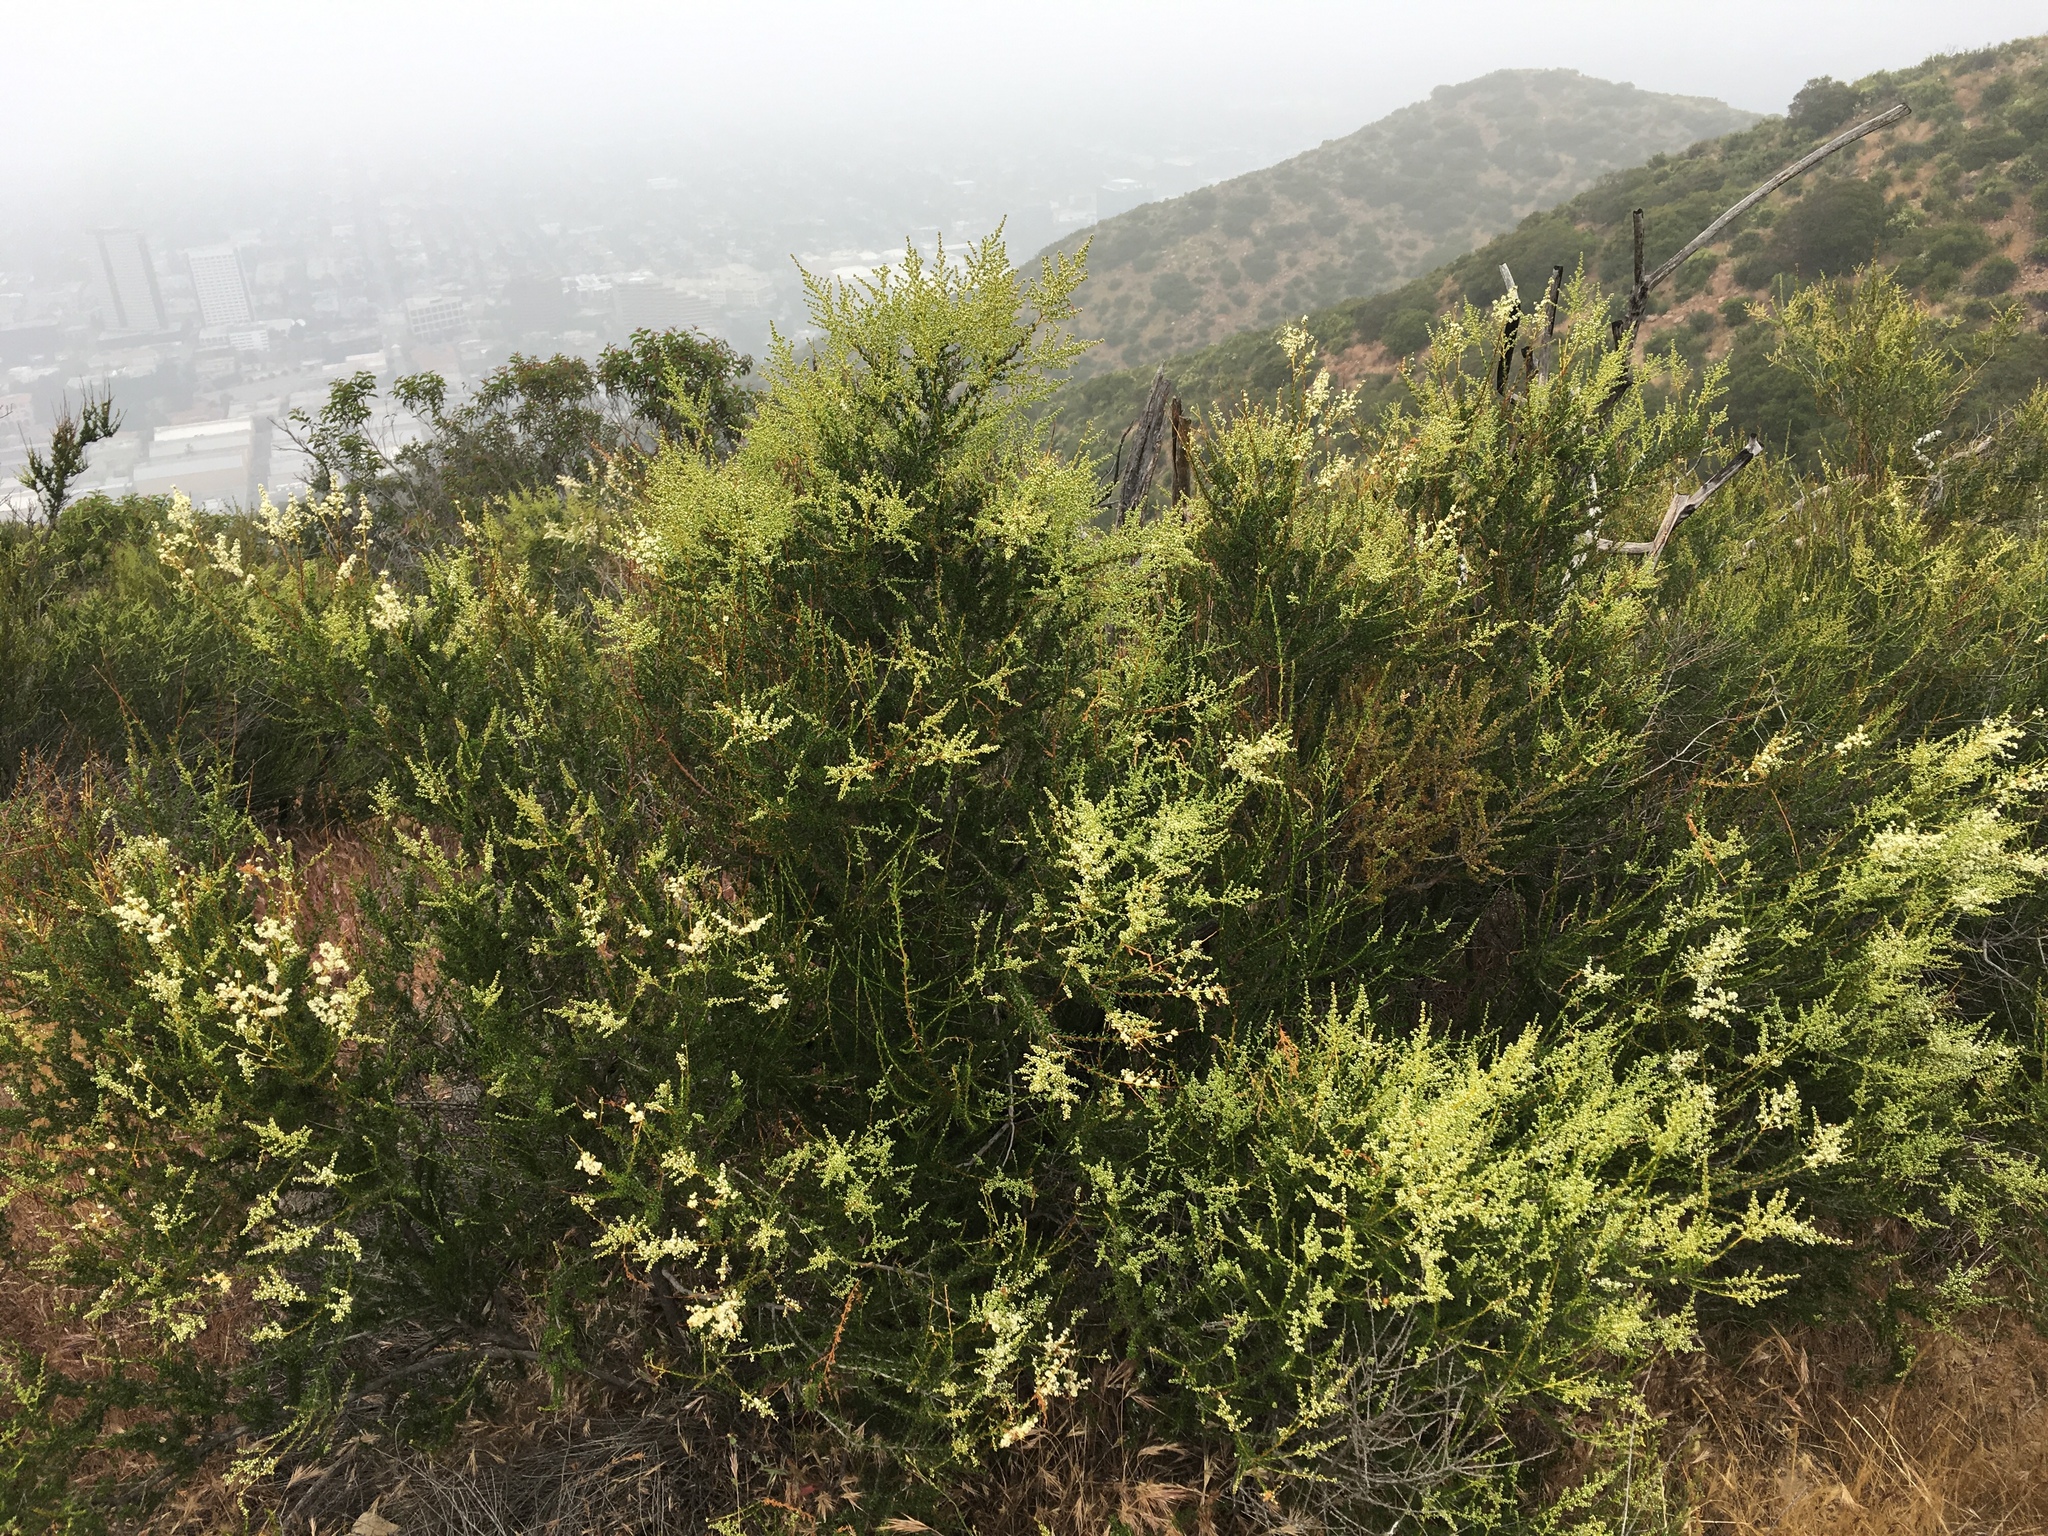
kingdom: Plantae
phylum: Tracheophyta
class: Magnoliopsida
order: Rosales
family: Rosaceae
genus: Adenostoma
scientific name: Adenostoma fasciculatum
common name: Chamise
